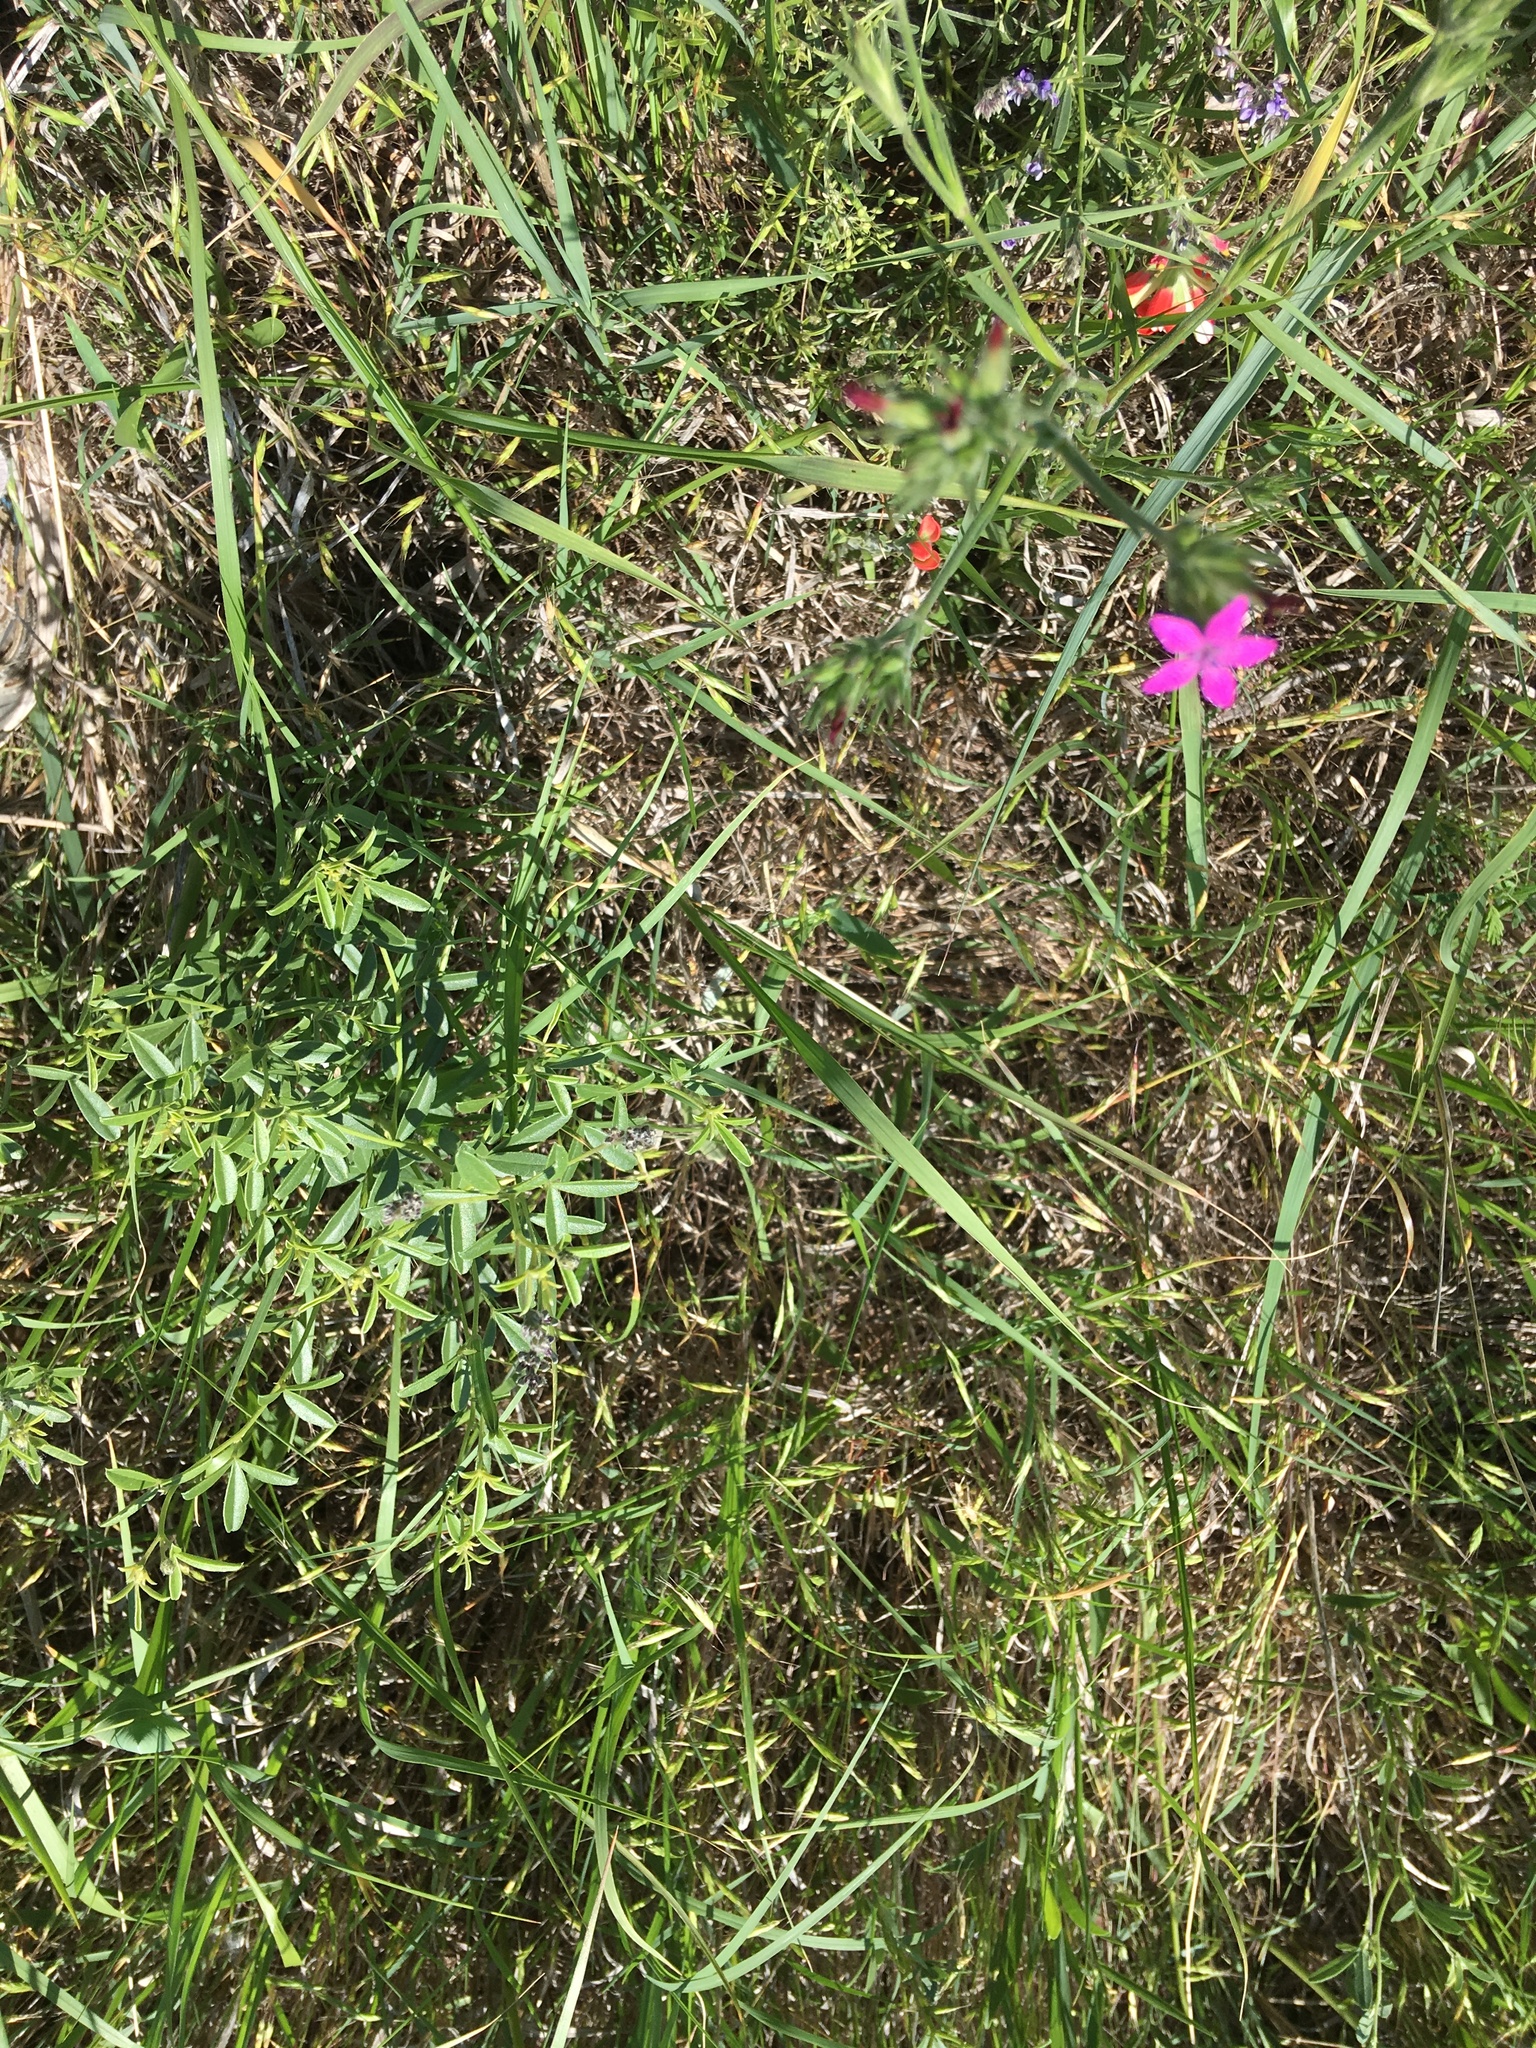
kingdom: Plantae
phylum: Tracheophyta
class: Magnoliopsida
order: Caryophyllales
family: Caryophyllaceae
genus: Dianthus
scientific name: Dianthus armeria
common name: Deptford pink
